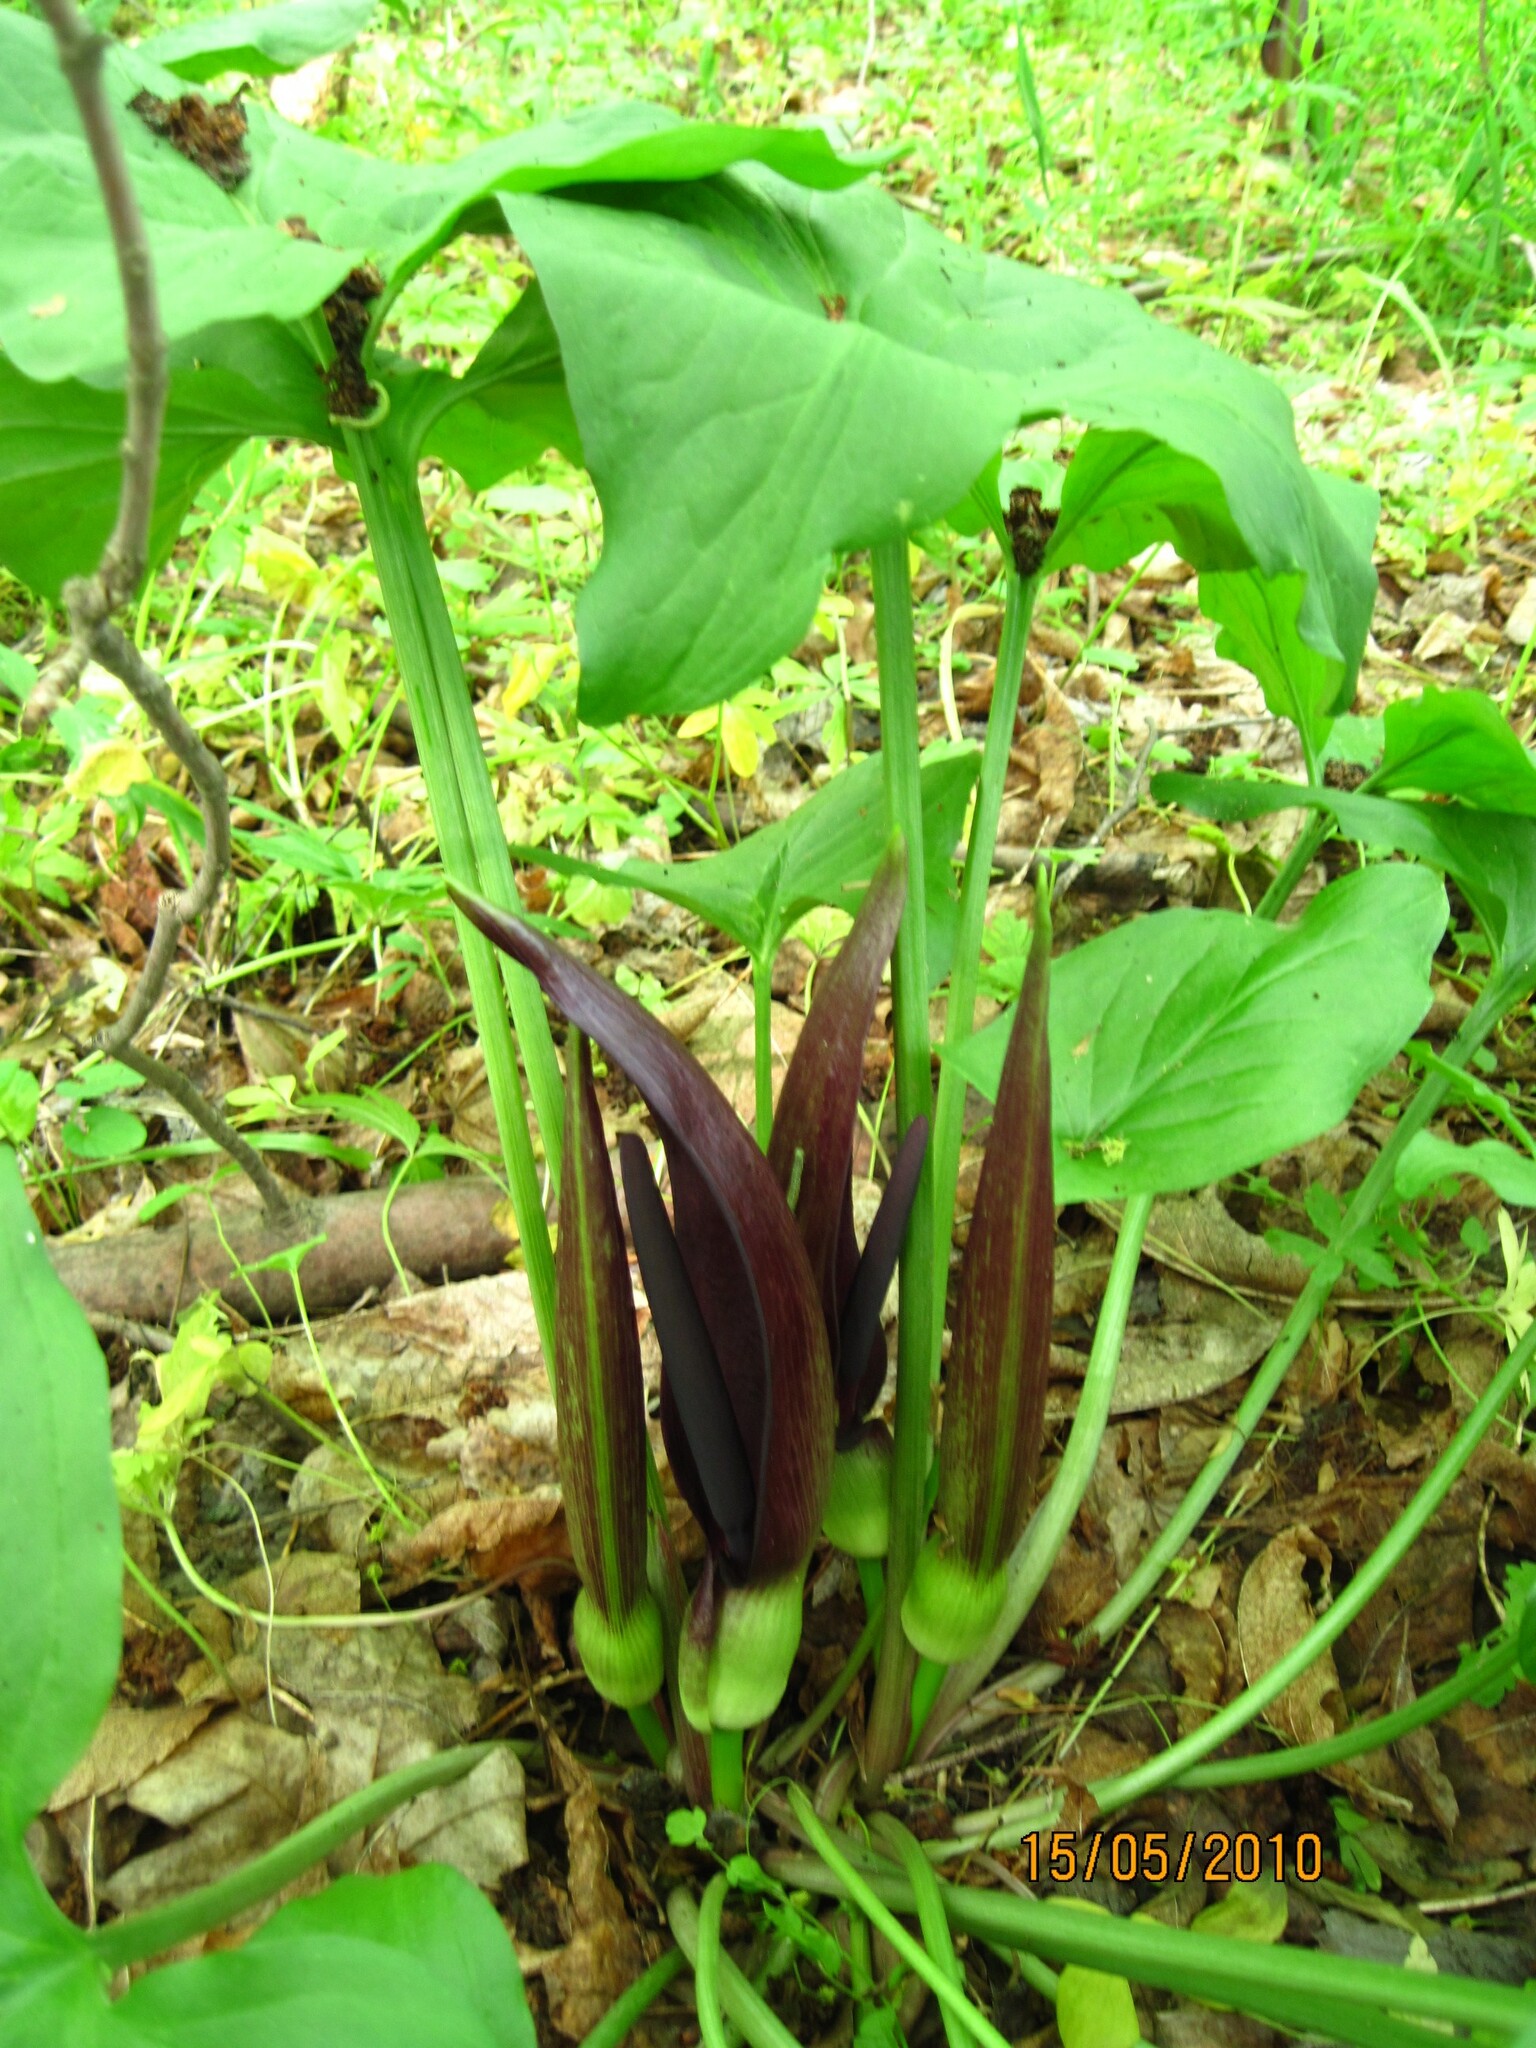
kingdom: Plantae
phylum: Tracheophyta
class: Liliopsida
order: Alismatales
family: Araceae
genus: Arum
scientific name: Arum orientale
